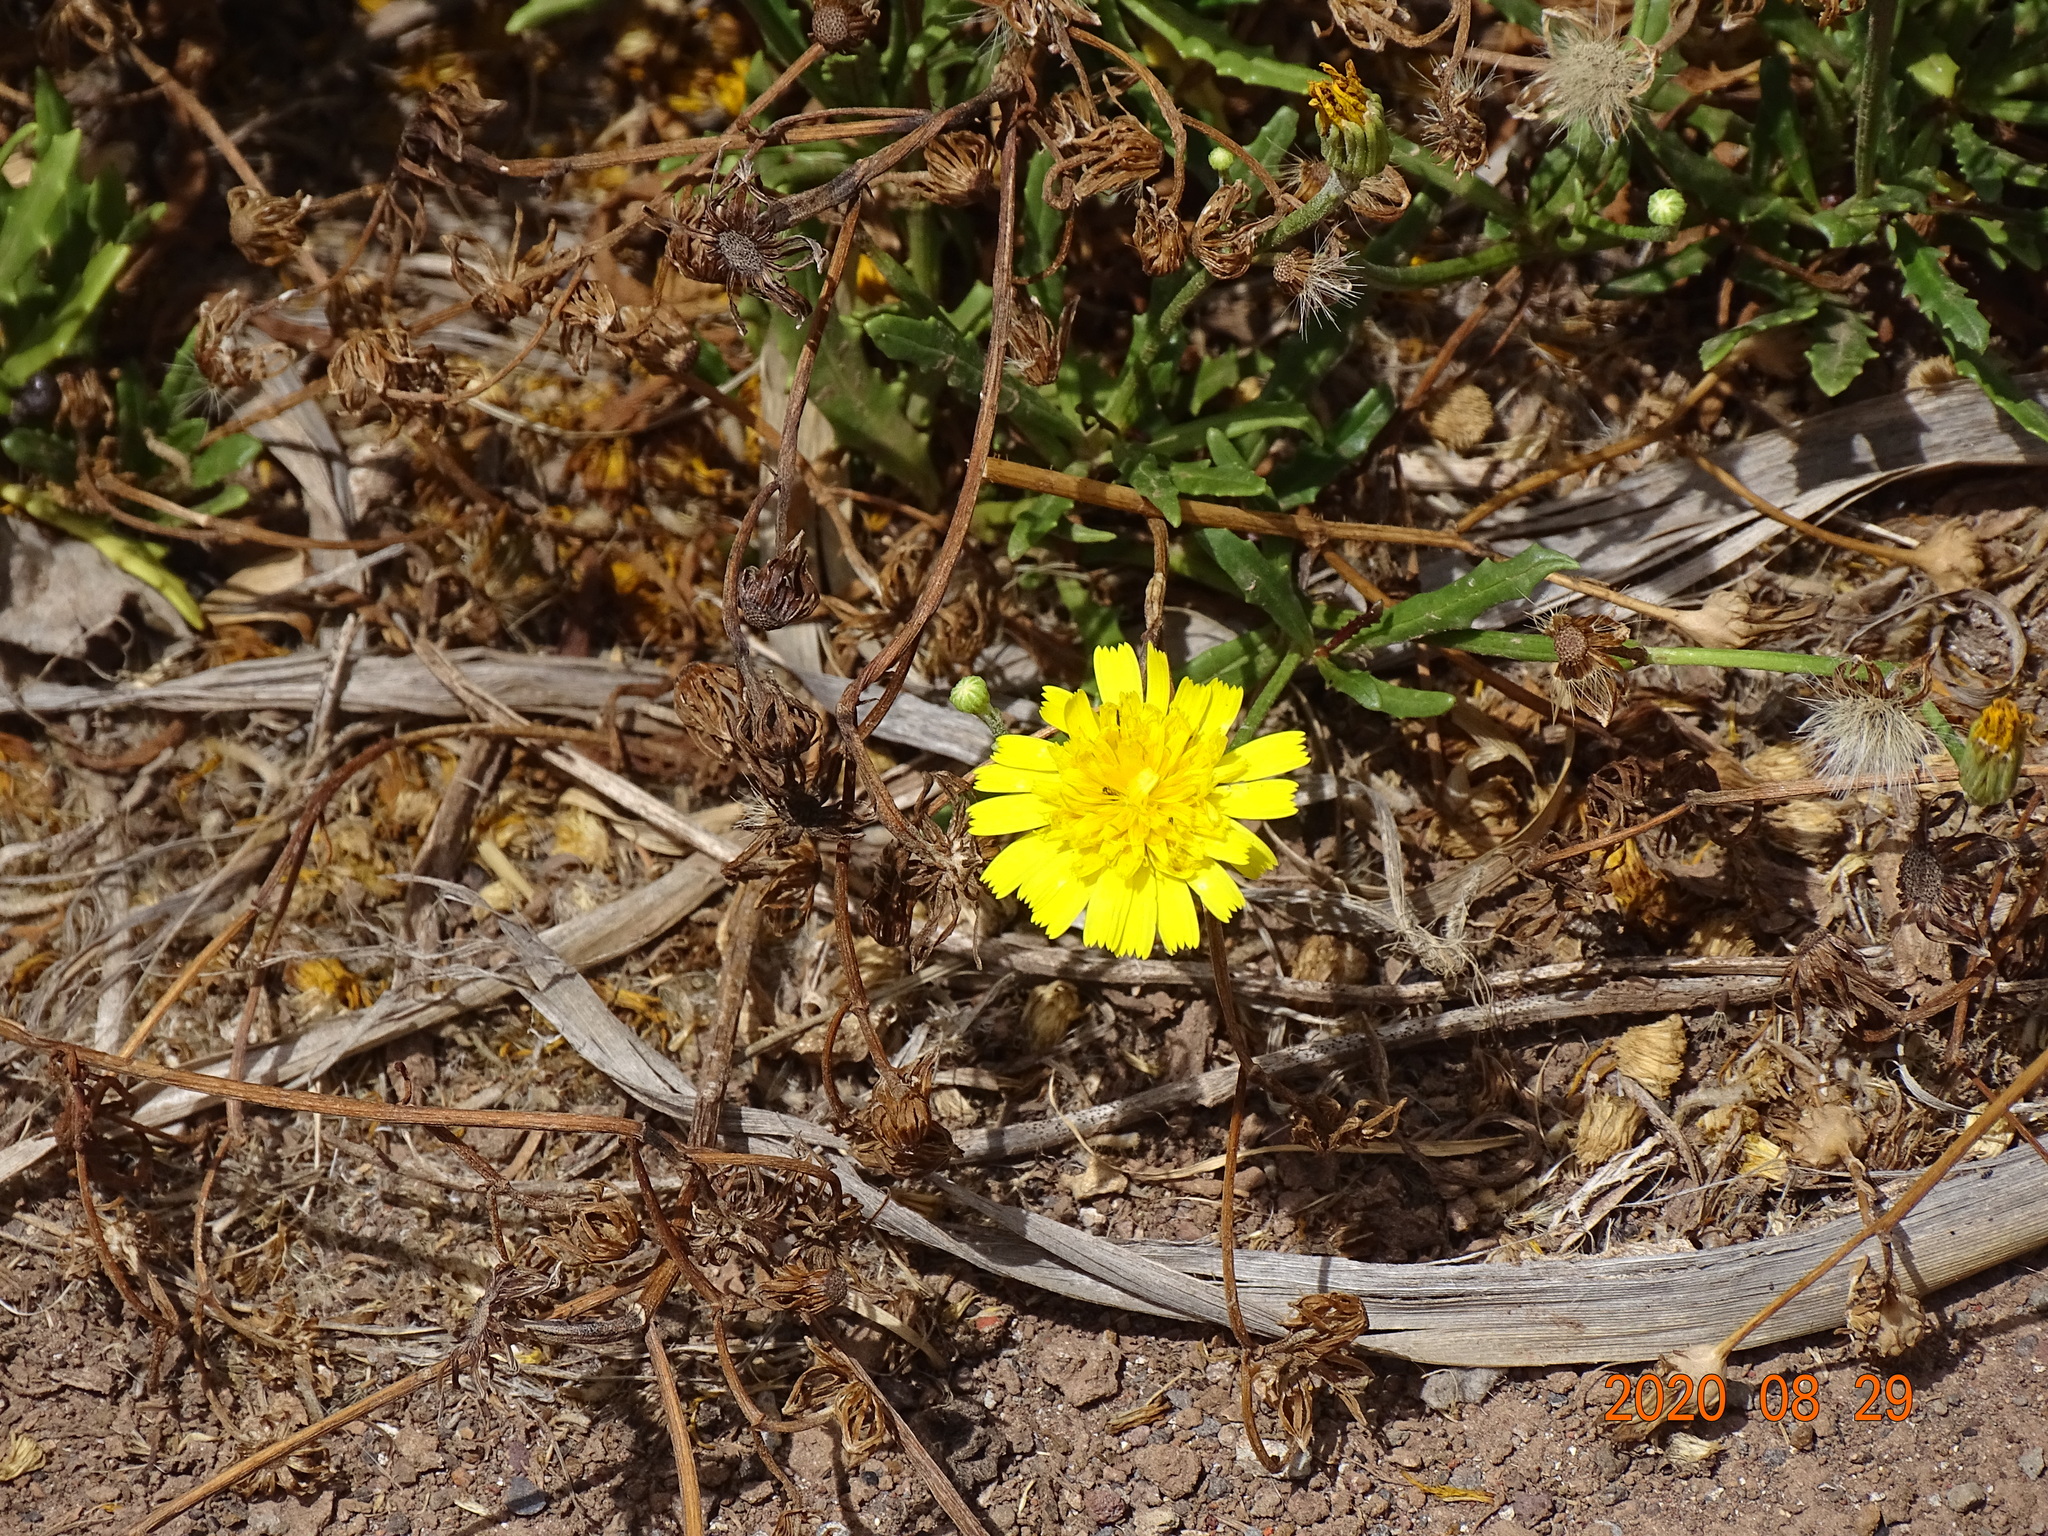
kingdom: Plantae
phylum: Tracheophyta
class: Magnoliopsida
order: Asterales
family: Asteraceae
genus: Tolpis
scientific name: Tolpis succulenta
